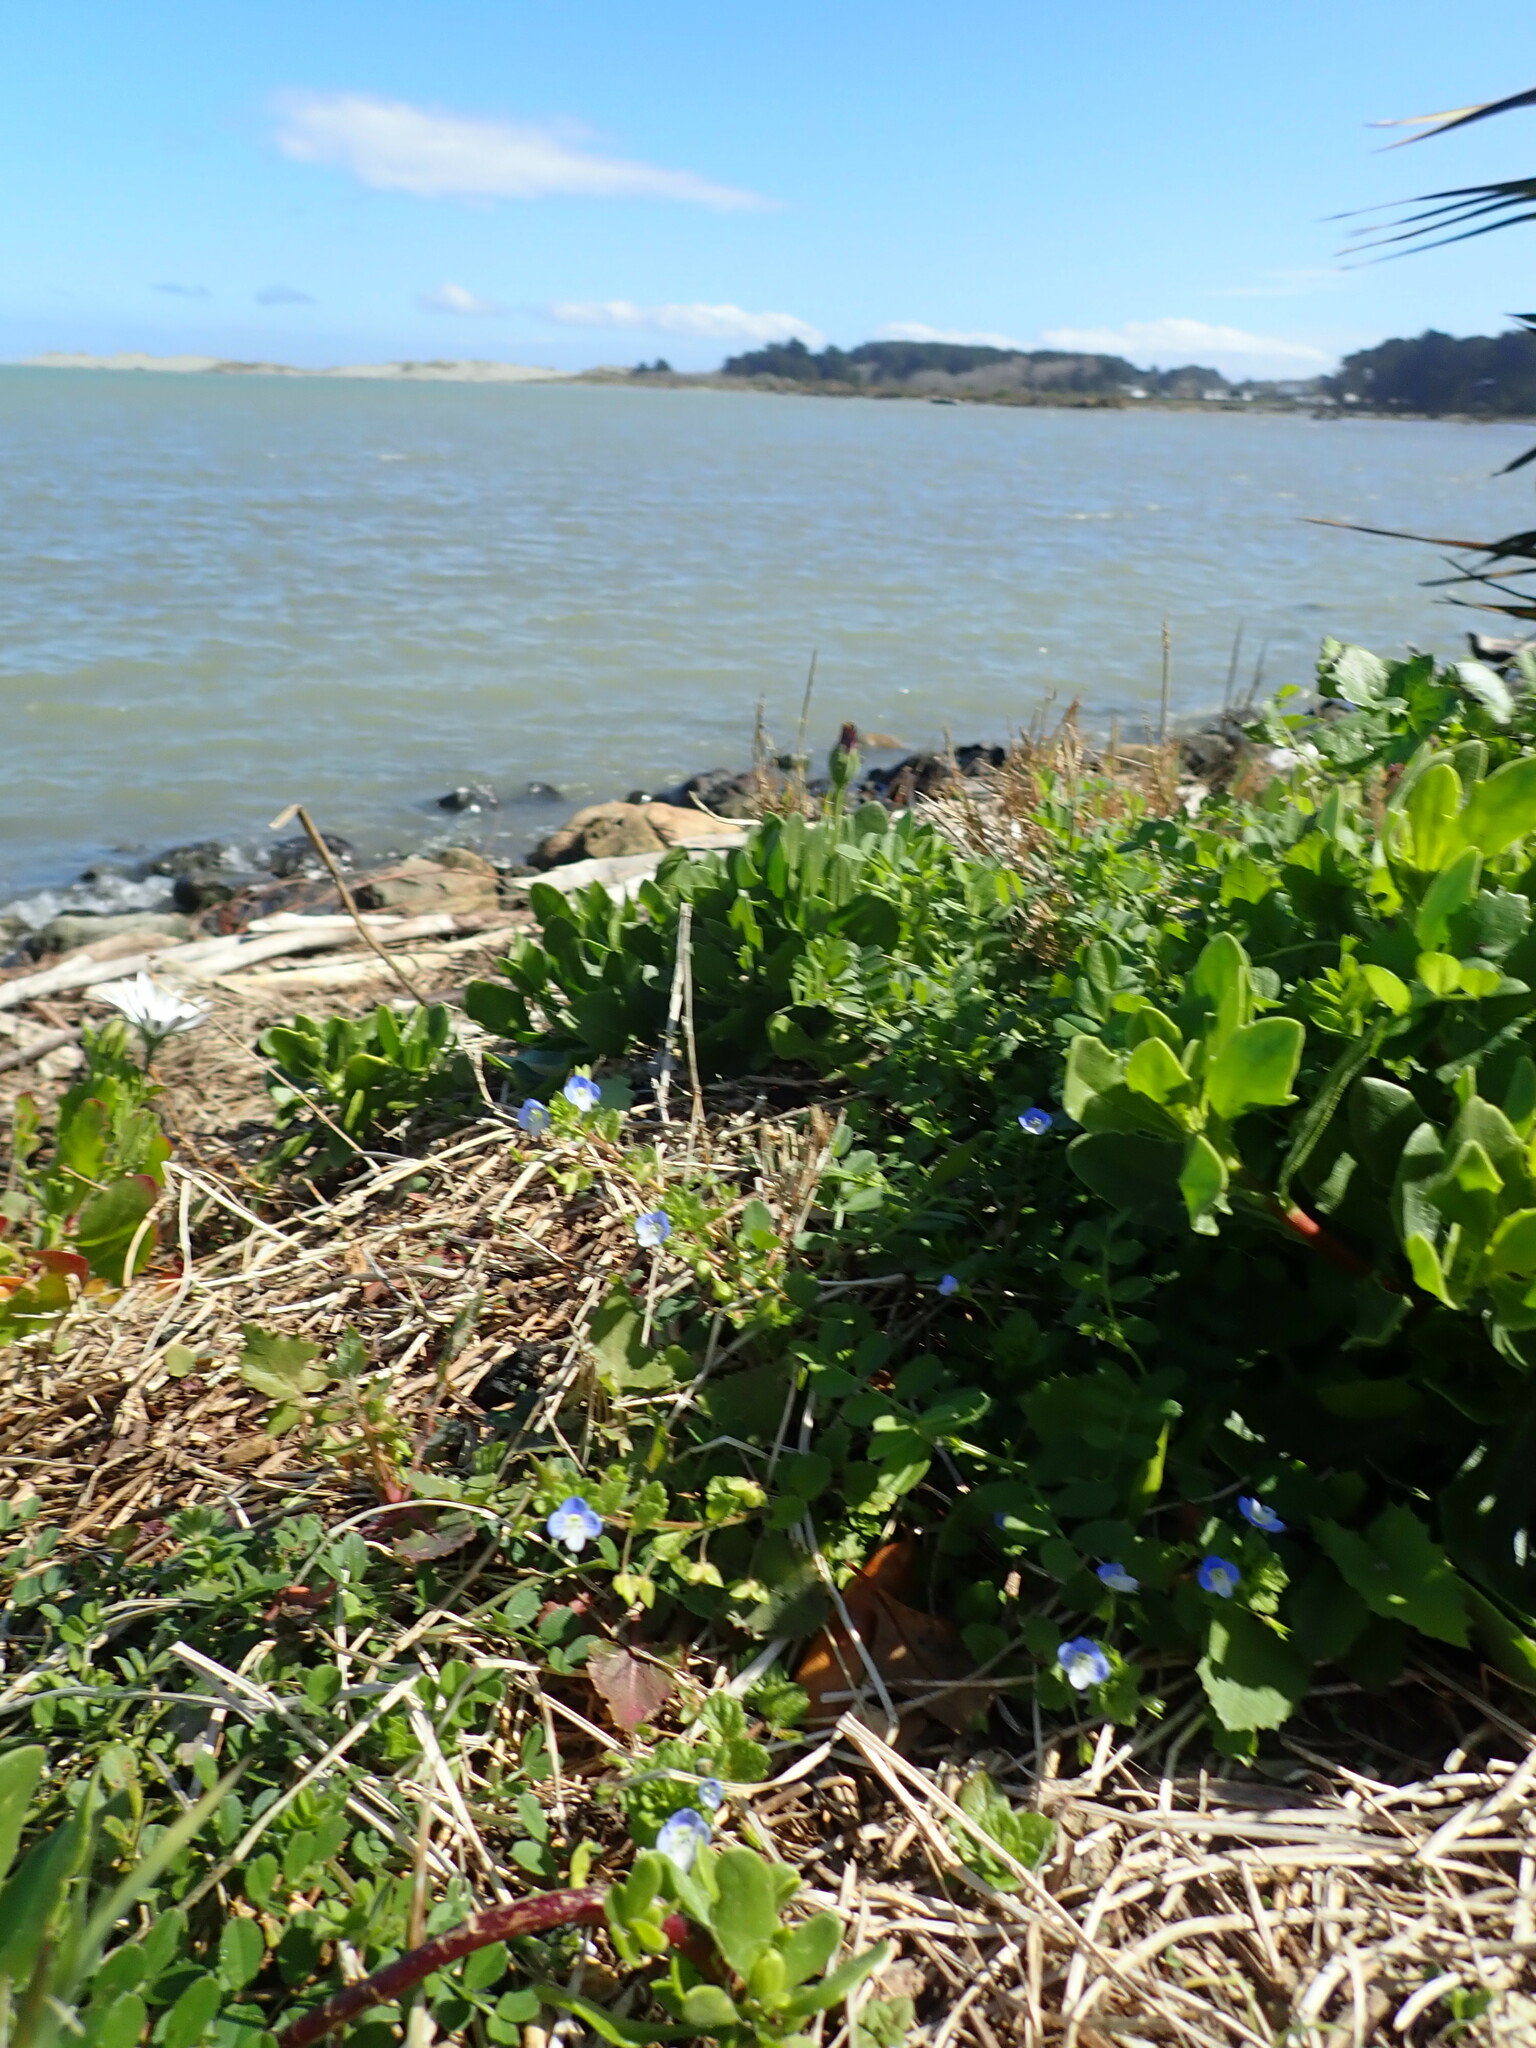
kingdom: Plantae
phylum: Tracheophyta
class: Magnoliopsida
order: Lamiales
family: Plantaginaceae
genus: Veronica
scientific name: Veronica persica
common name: Common field-speedwell
